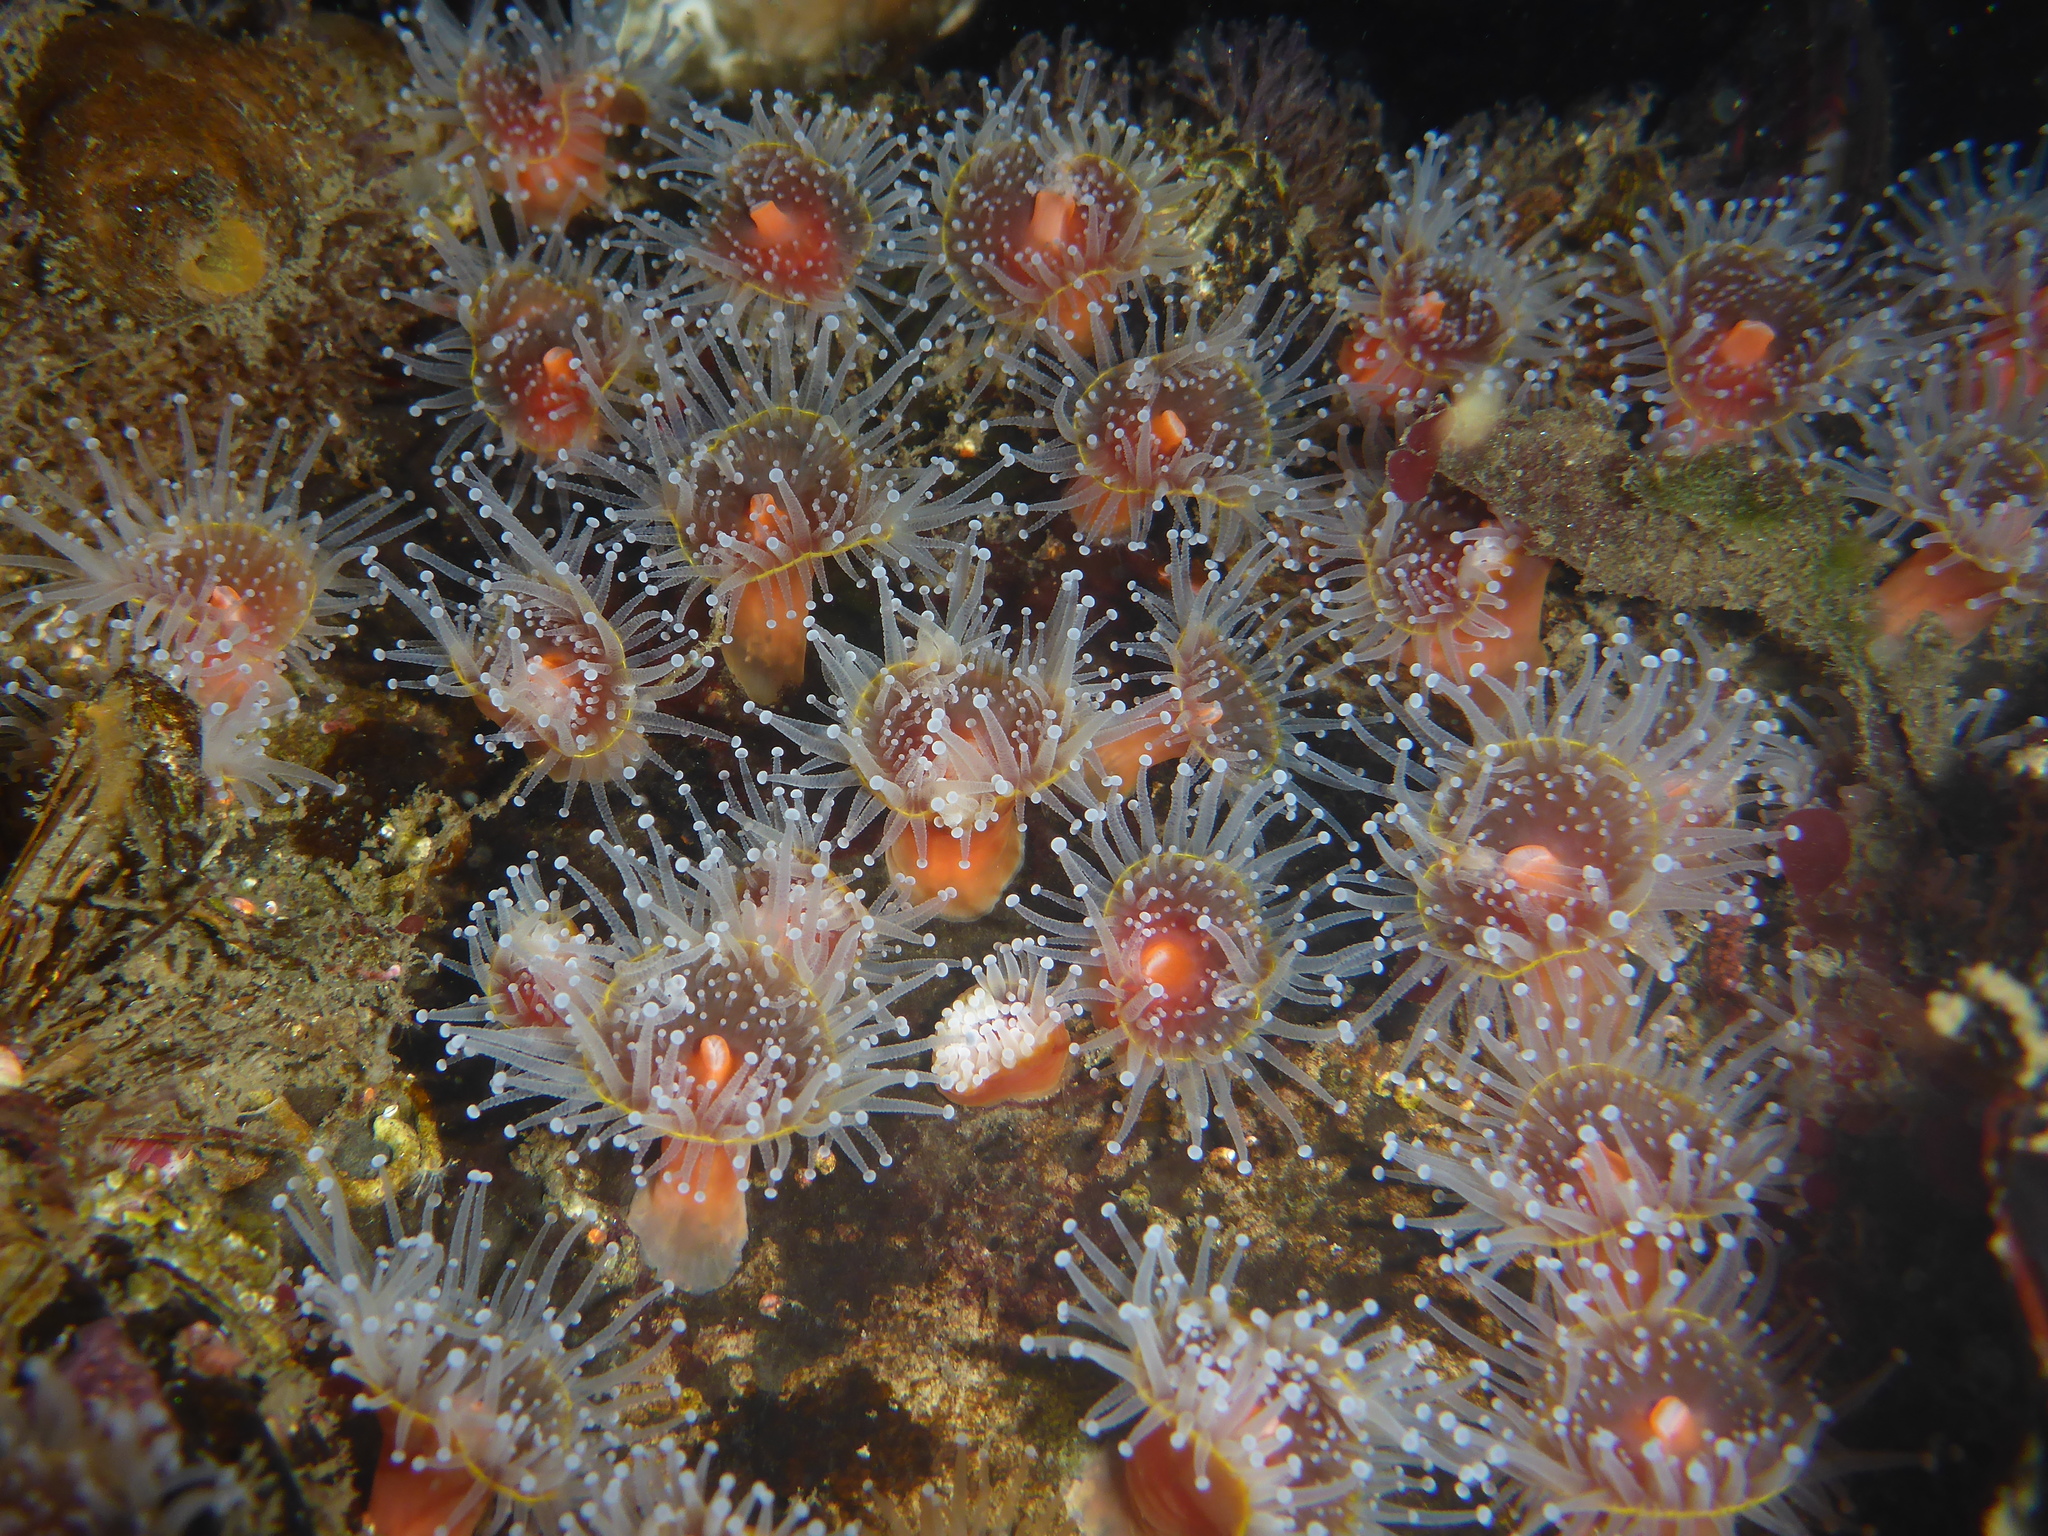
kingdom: Animalia
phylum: Cnidaria
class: Anthozoa
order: Corallimorpharia
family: Corallimorphidae
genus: Corynactis
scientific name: Corynactis californica
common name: Strawberry corallimorpharian
